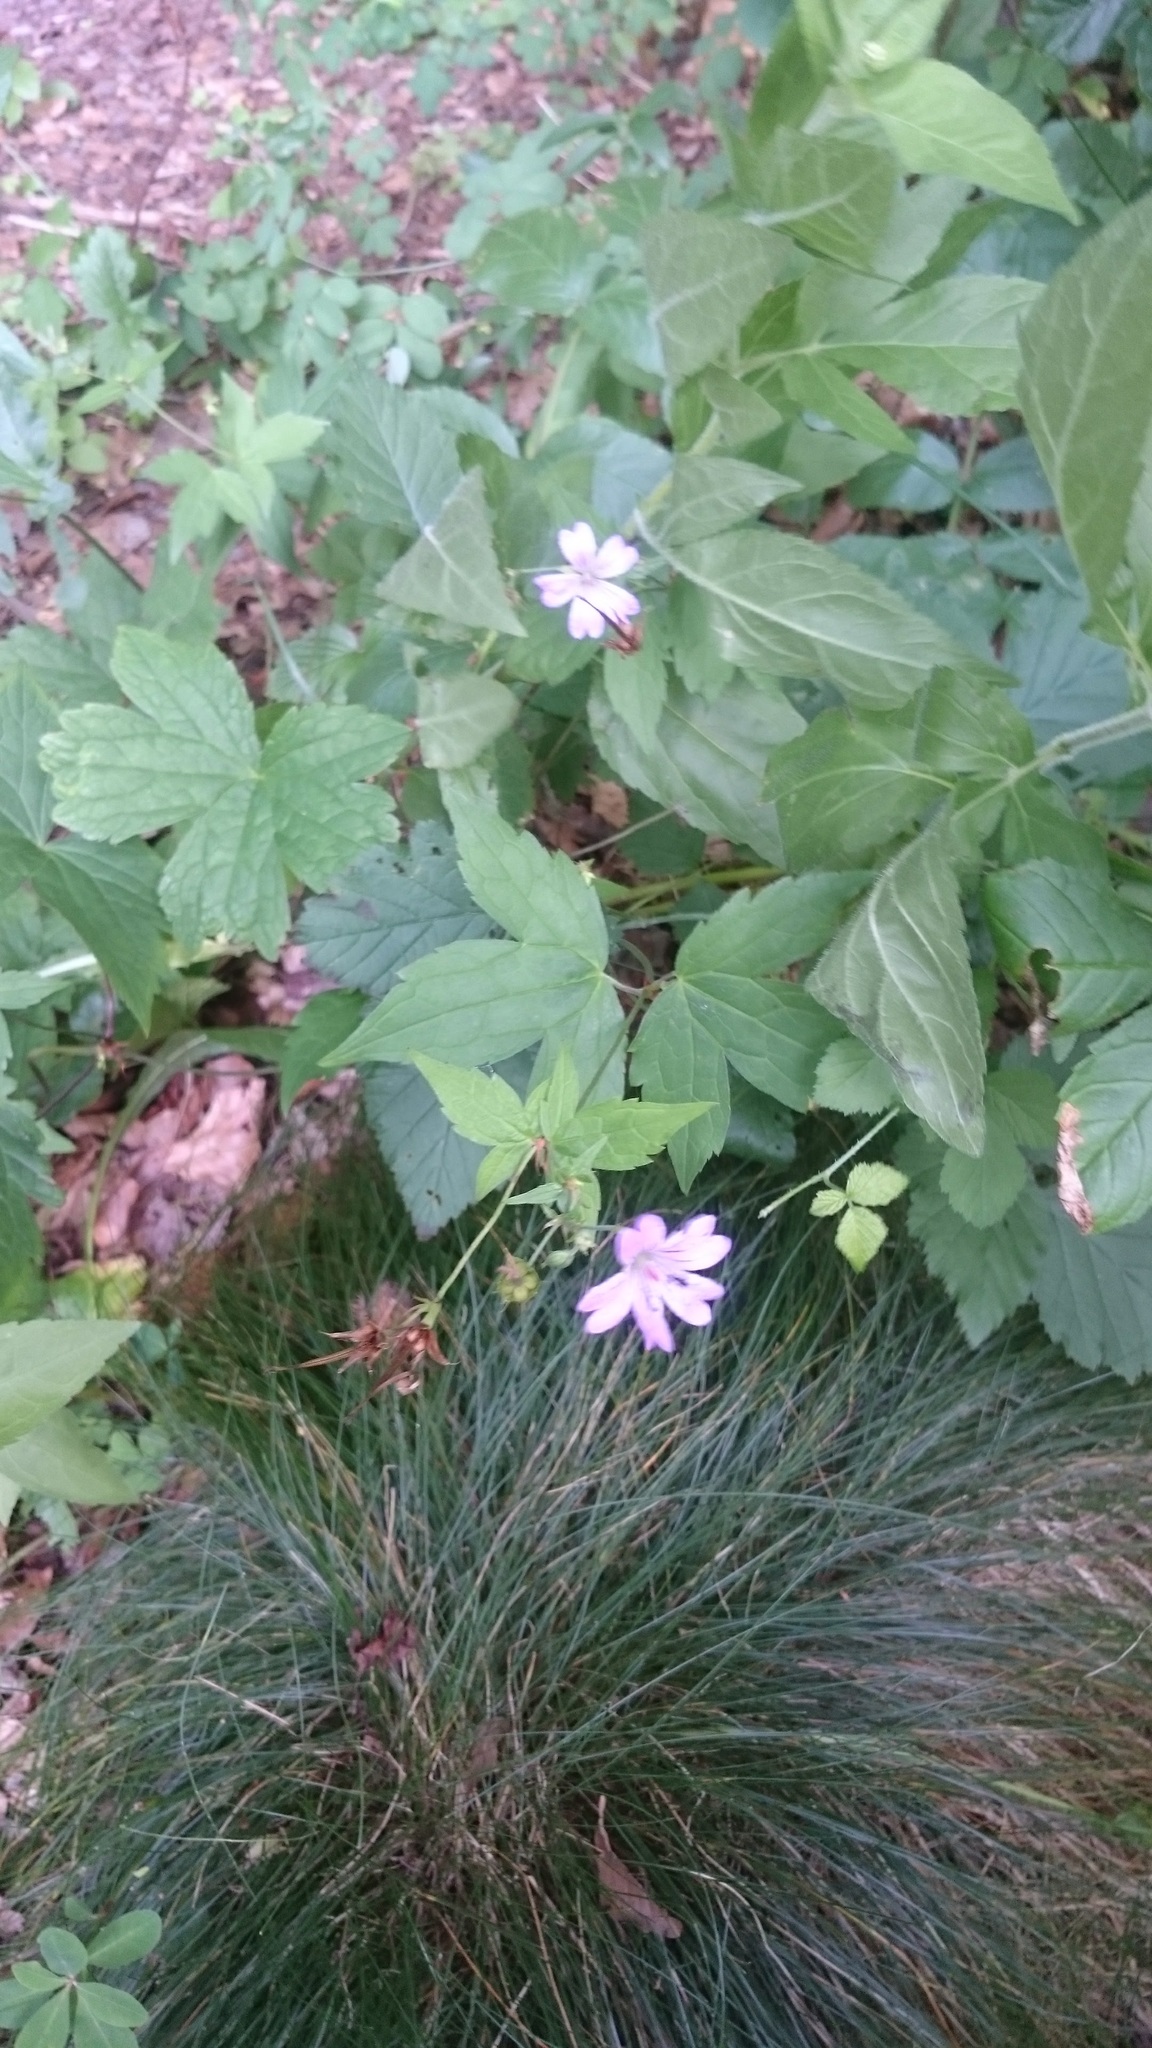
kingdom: Plantae
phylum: Tracheophyta
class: Magnoliopsida
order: Geraniales
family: Geraniaceae
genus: Geranium
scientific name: Geranium nodosum
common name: Knotted crane's-bill
